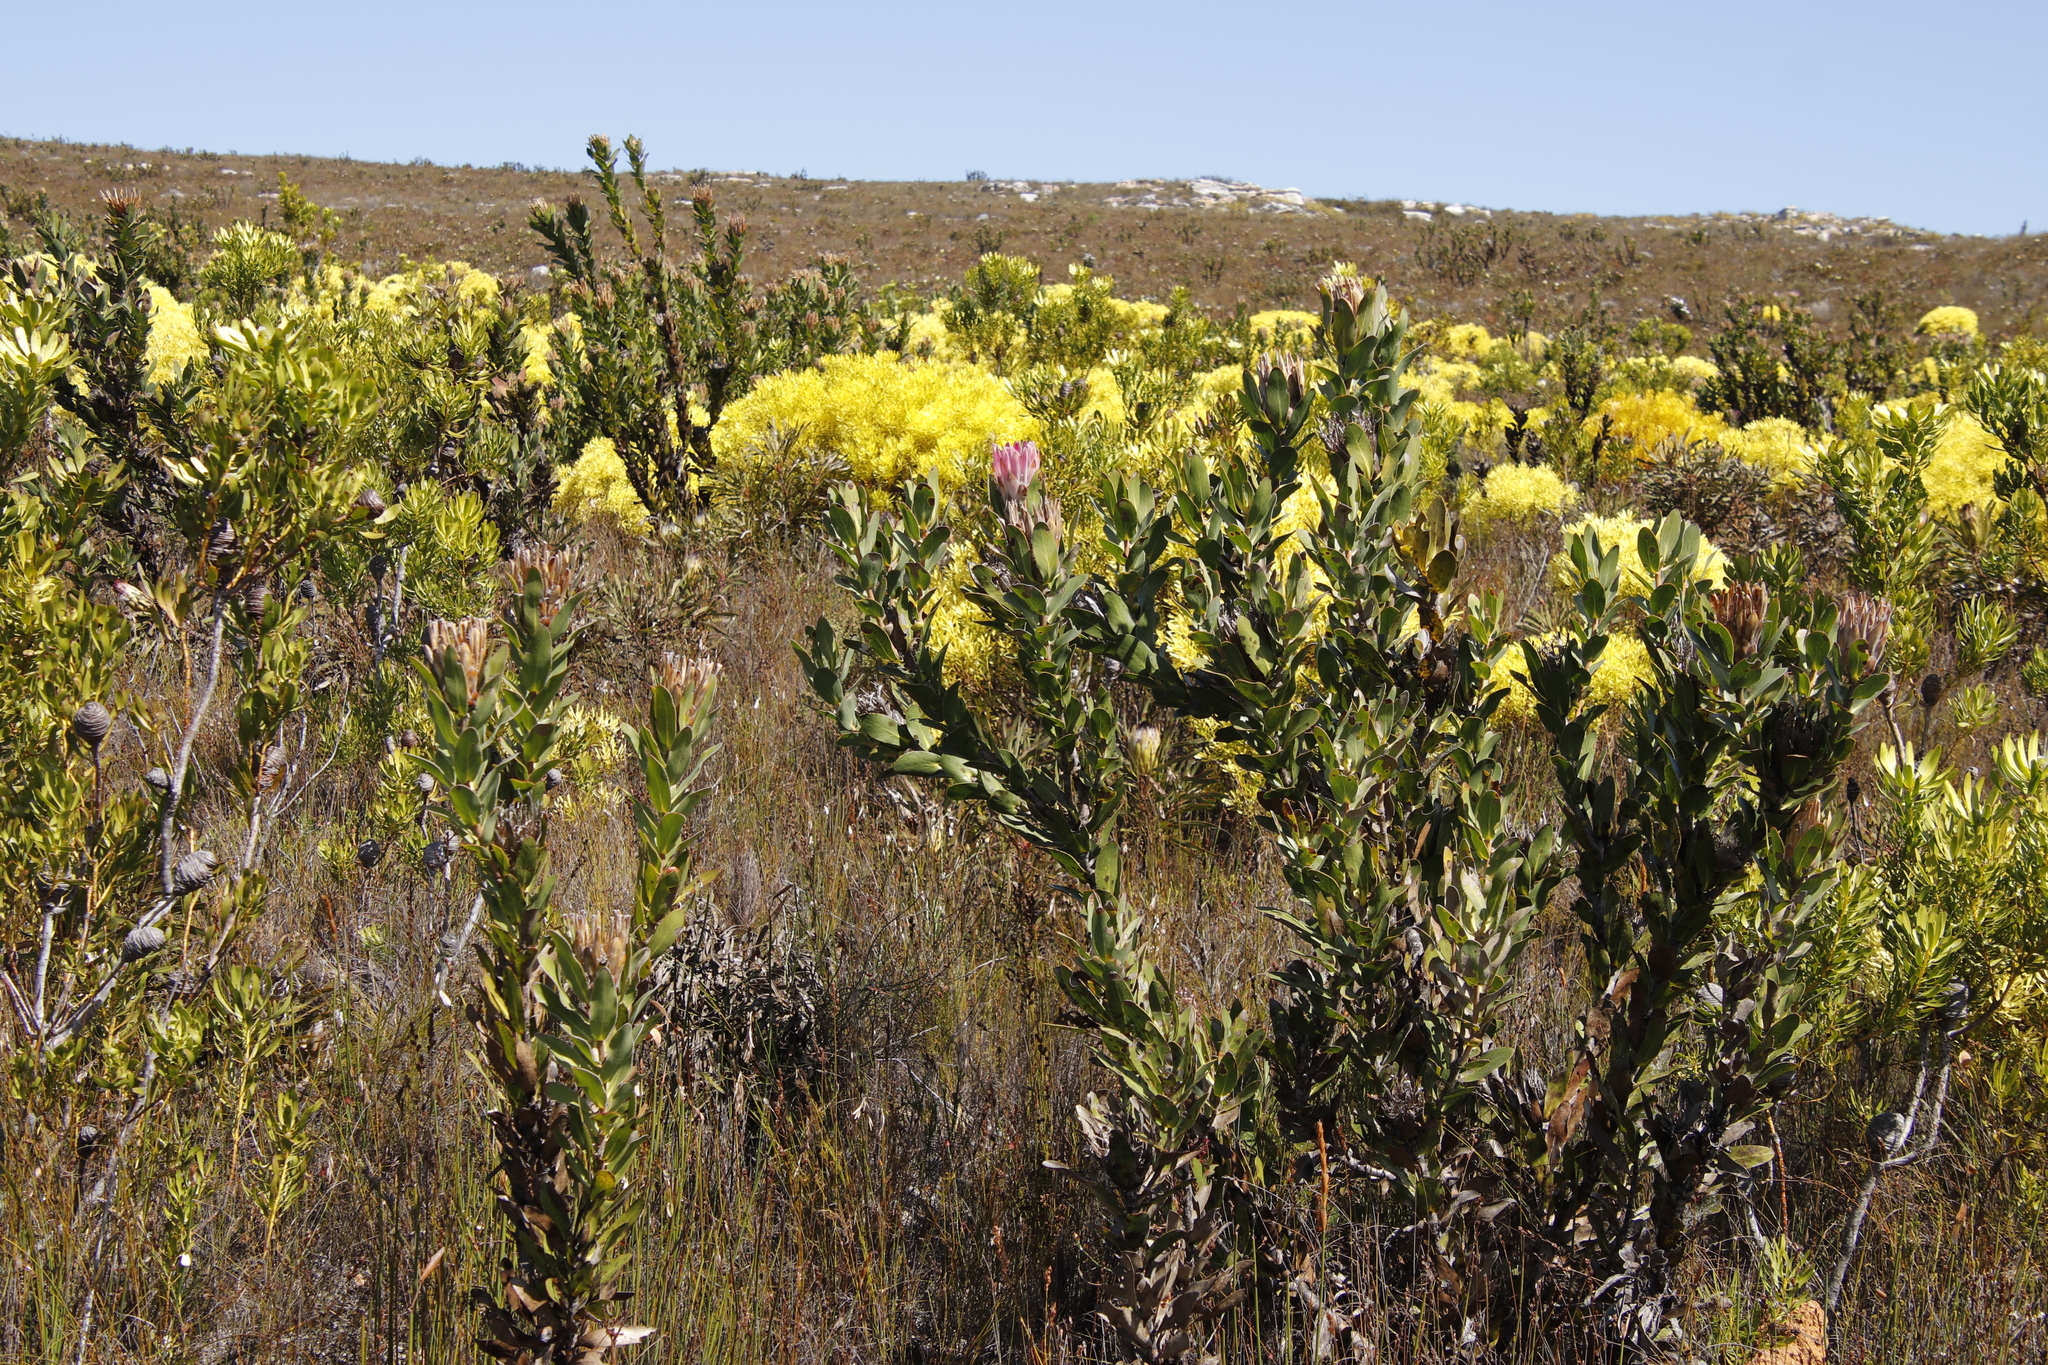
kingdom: Plantae
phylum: Tracheophyta
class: Magnoliopsida
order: Proteales
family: Proteaceae
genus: Protea
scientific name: Protea compacta
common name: Bot river protea
